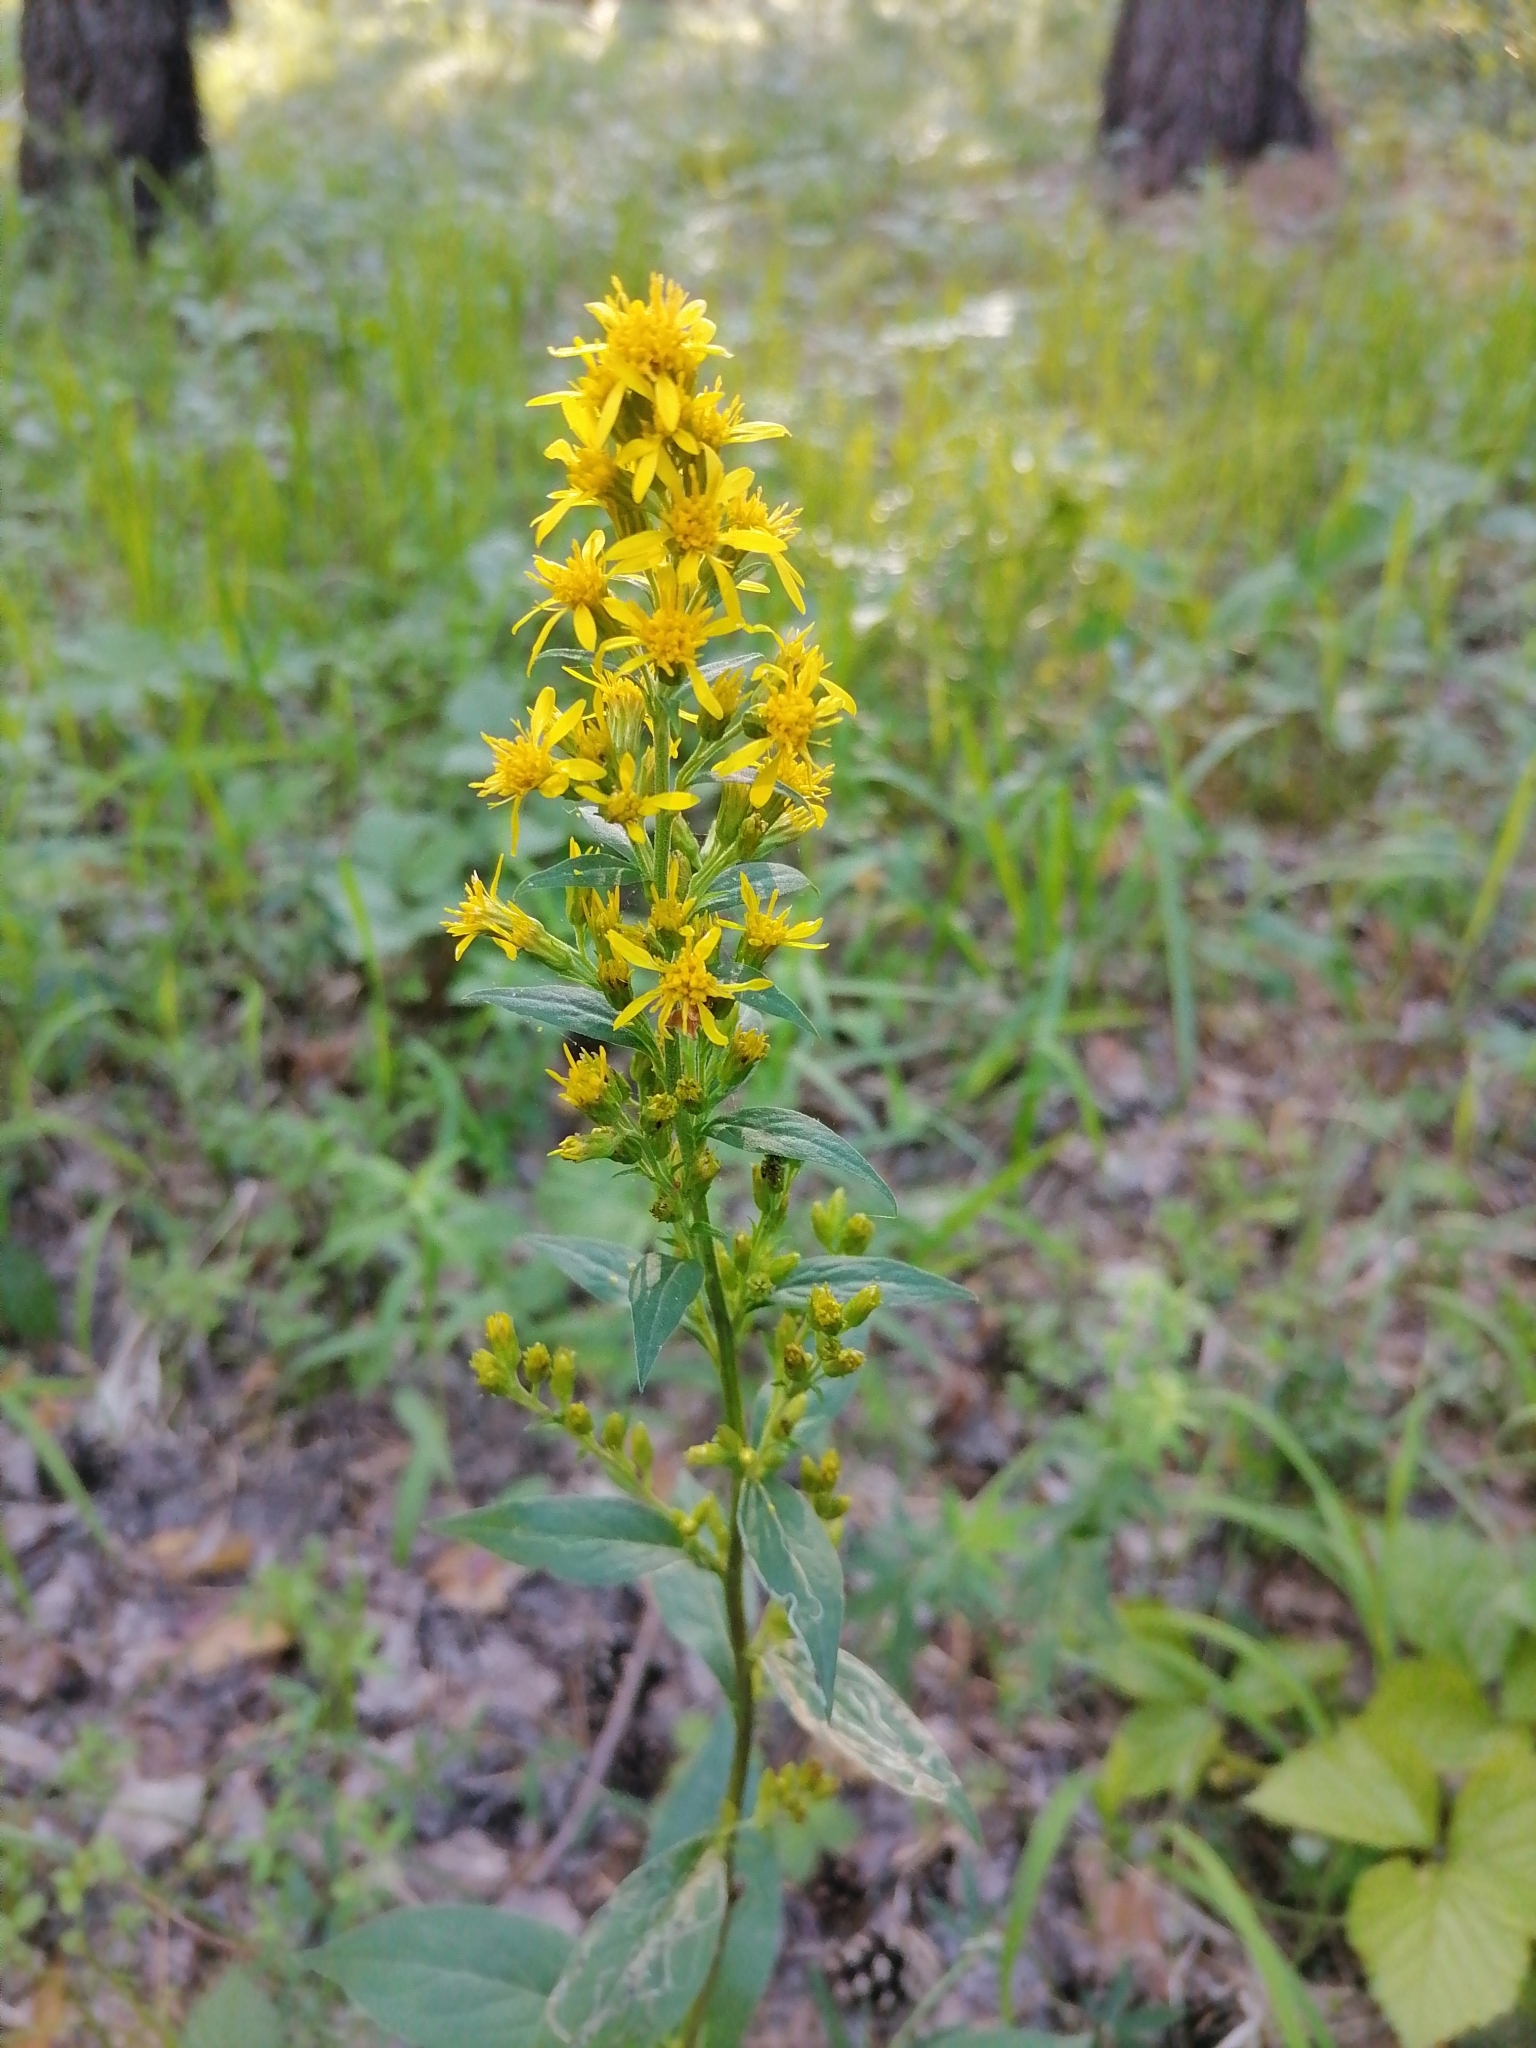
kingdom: Plantae
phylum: Tracheophyta
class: Magnoliopsida
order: Asterales
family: Asteraceae
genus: Solidago
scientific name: Solidago virgaurea
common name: Goldenrod
